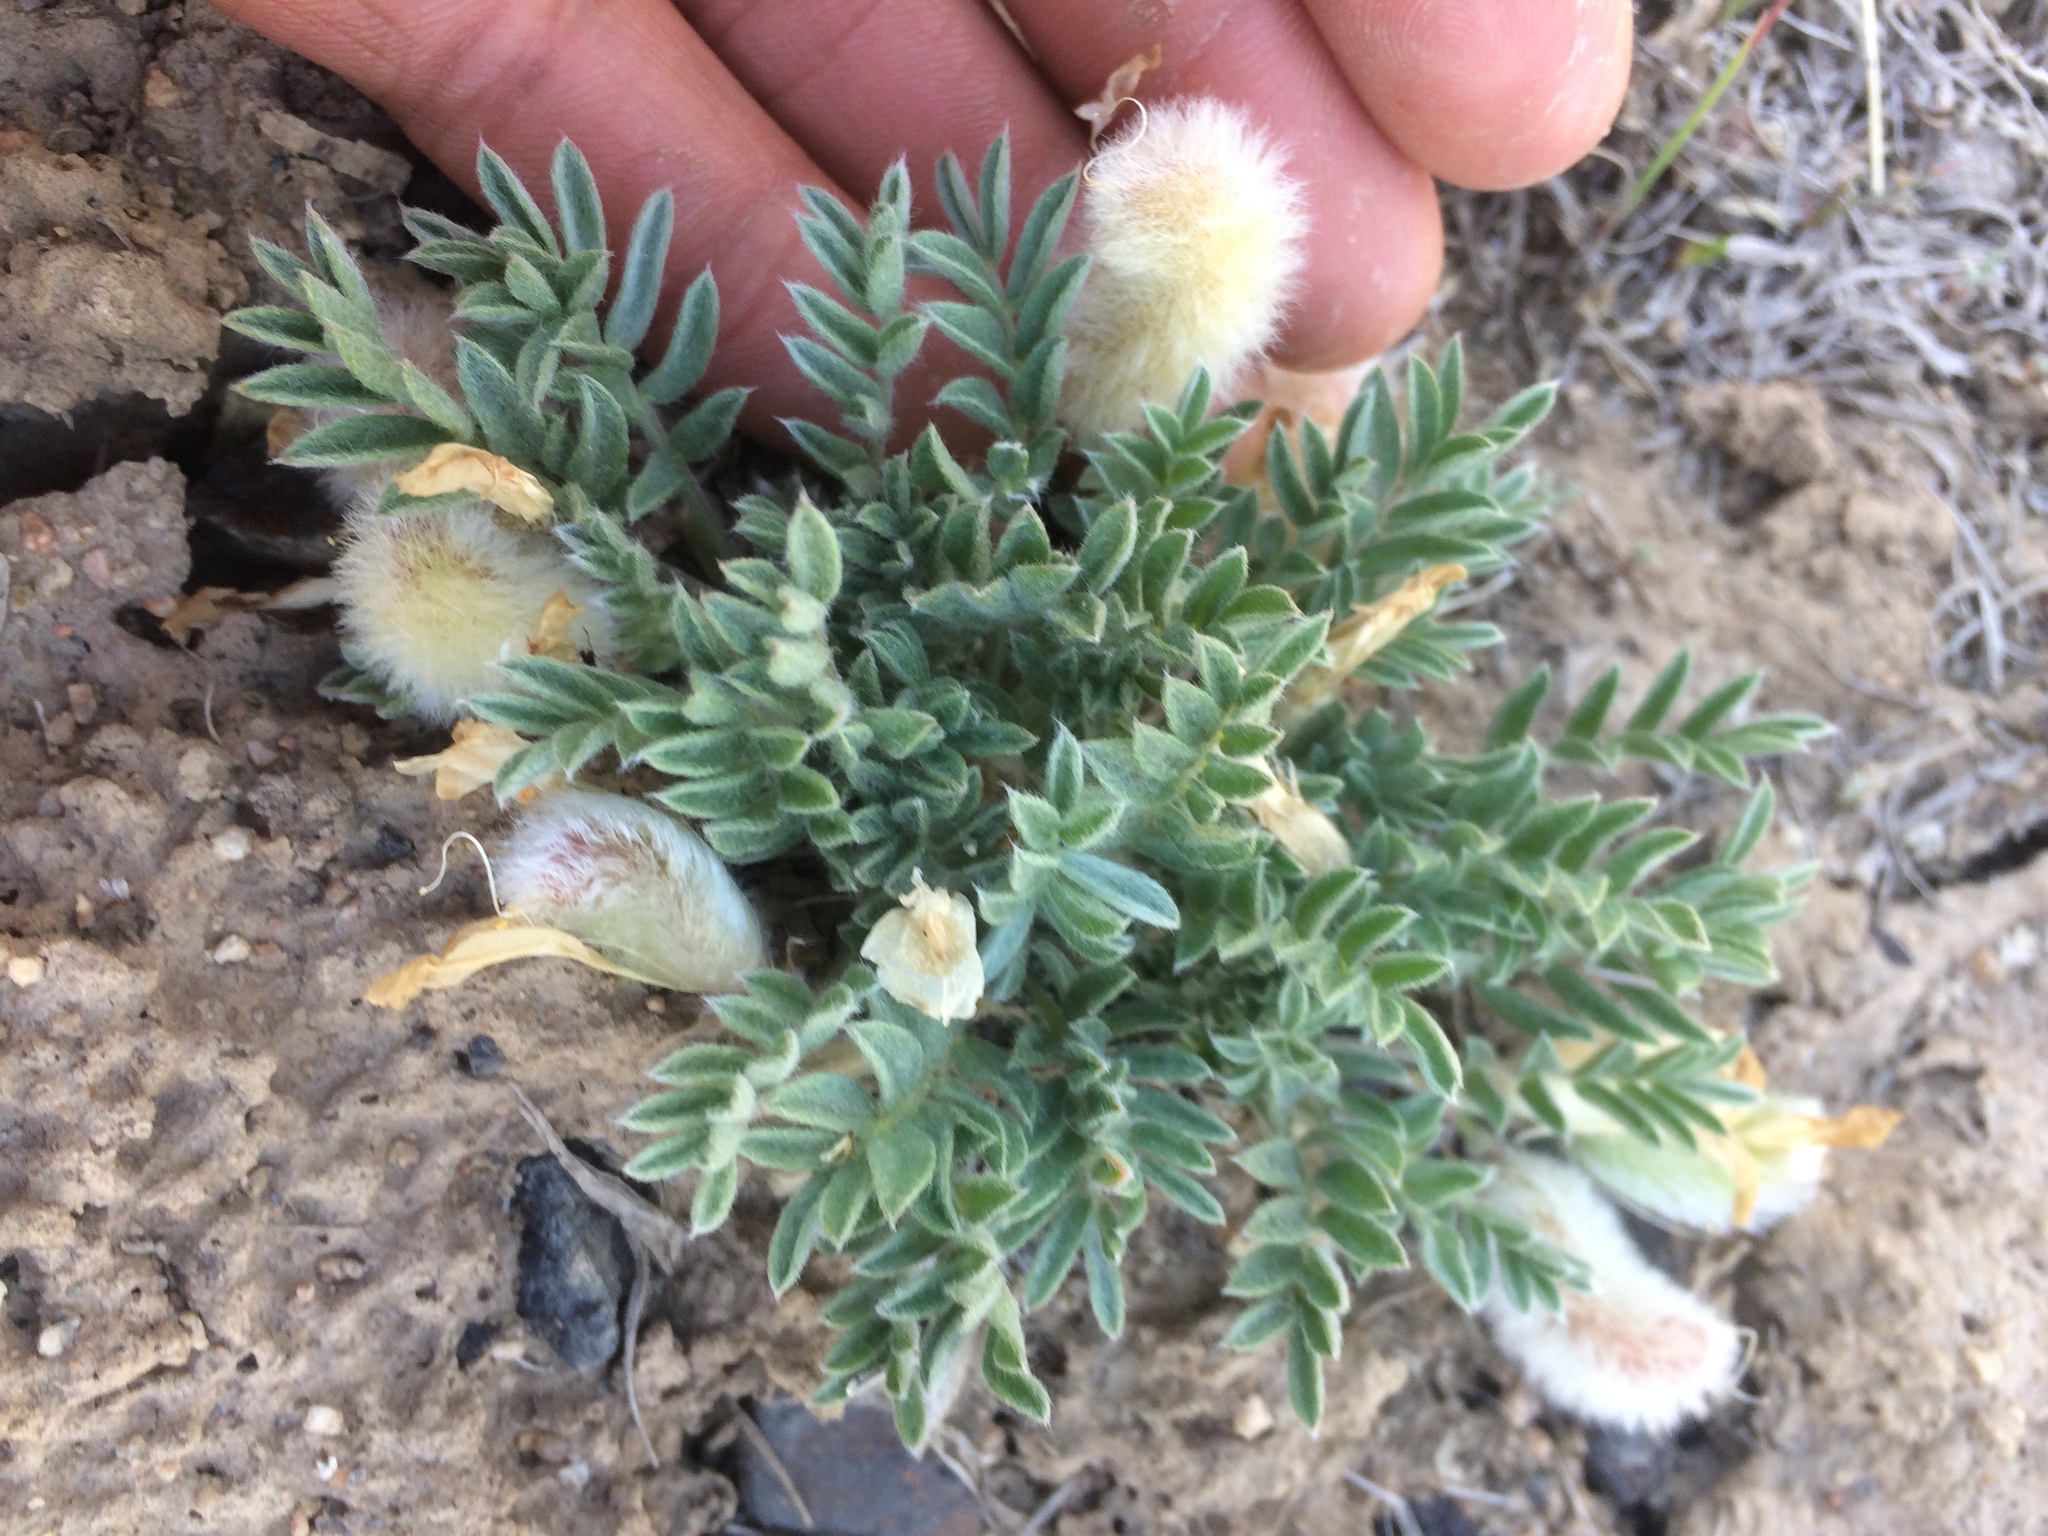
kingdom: Plantae
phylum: Tracheophyta
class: Magnoliopsida
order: Fabales
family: Fabaceae
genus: Astragalus
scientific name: Astragalus purshii
